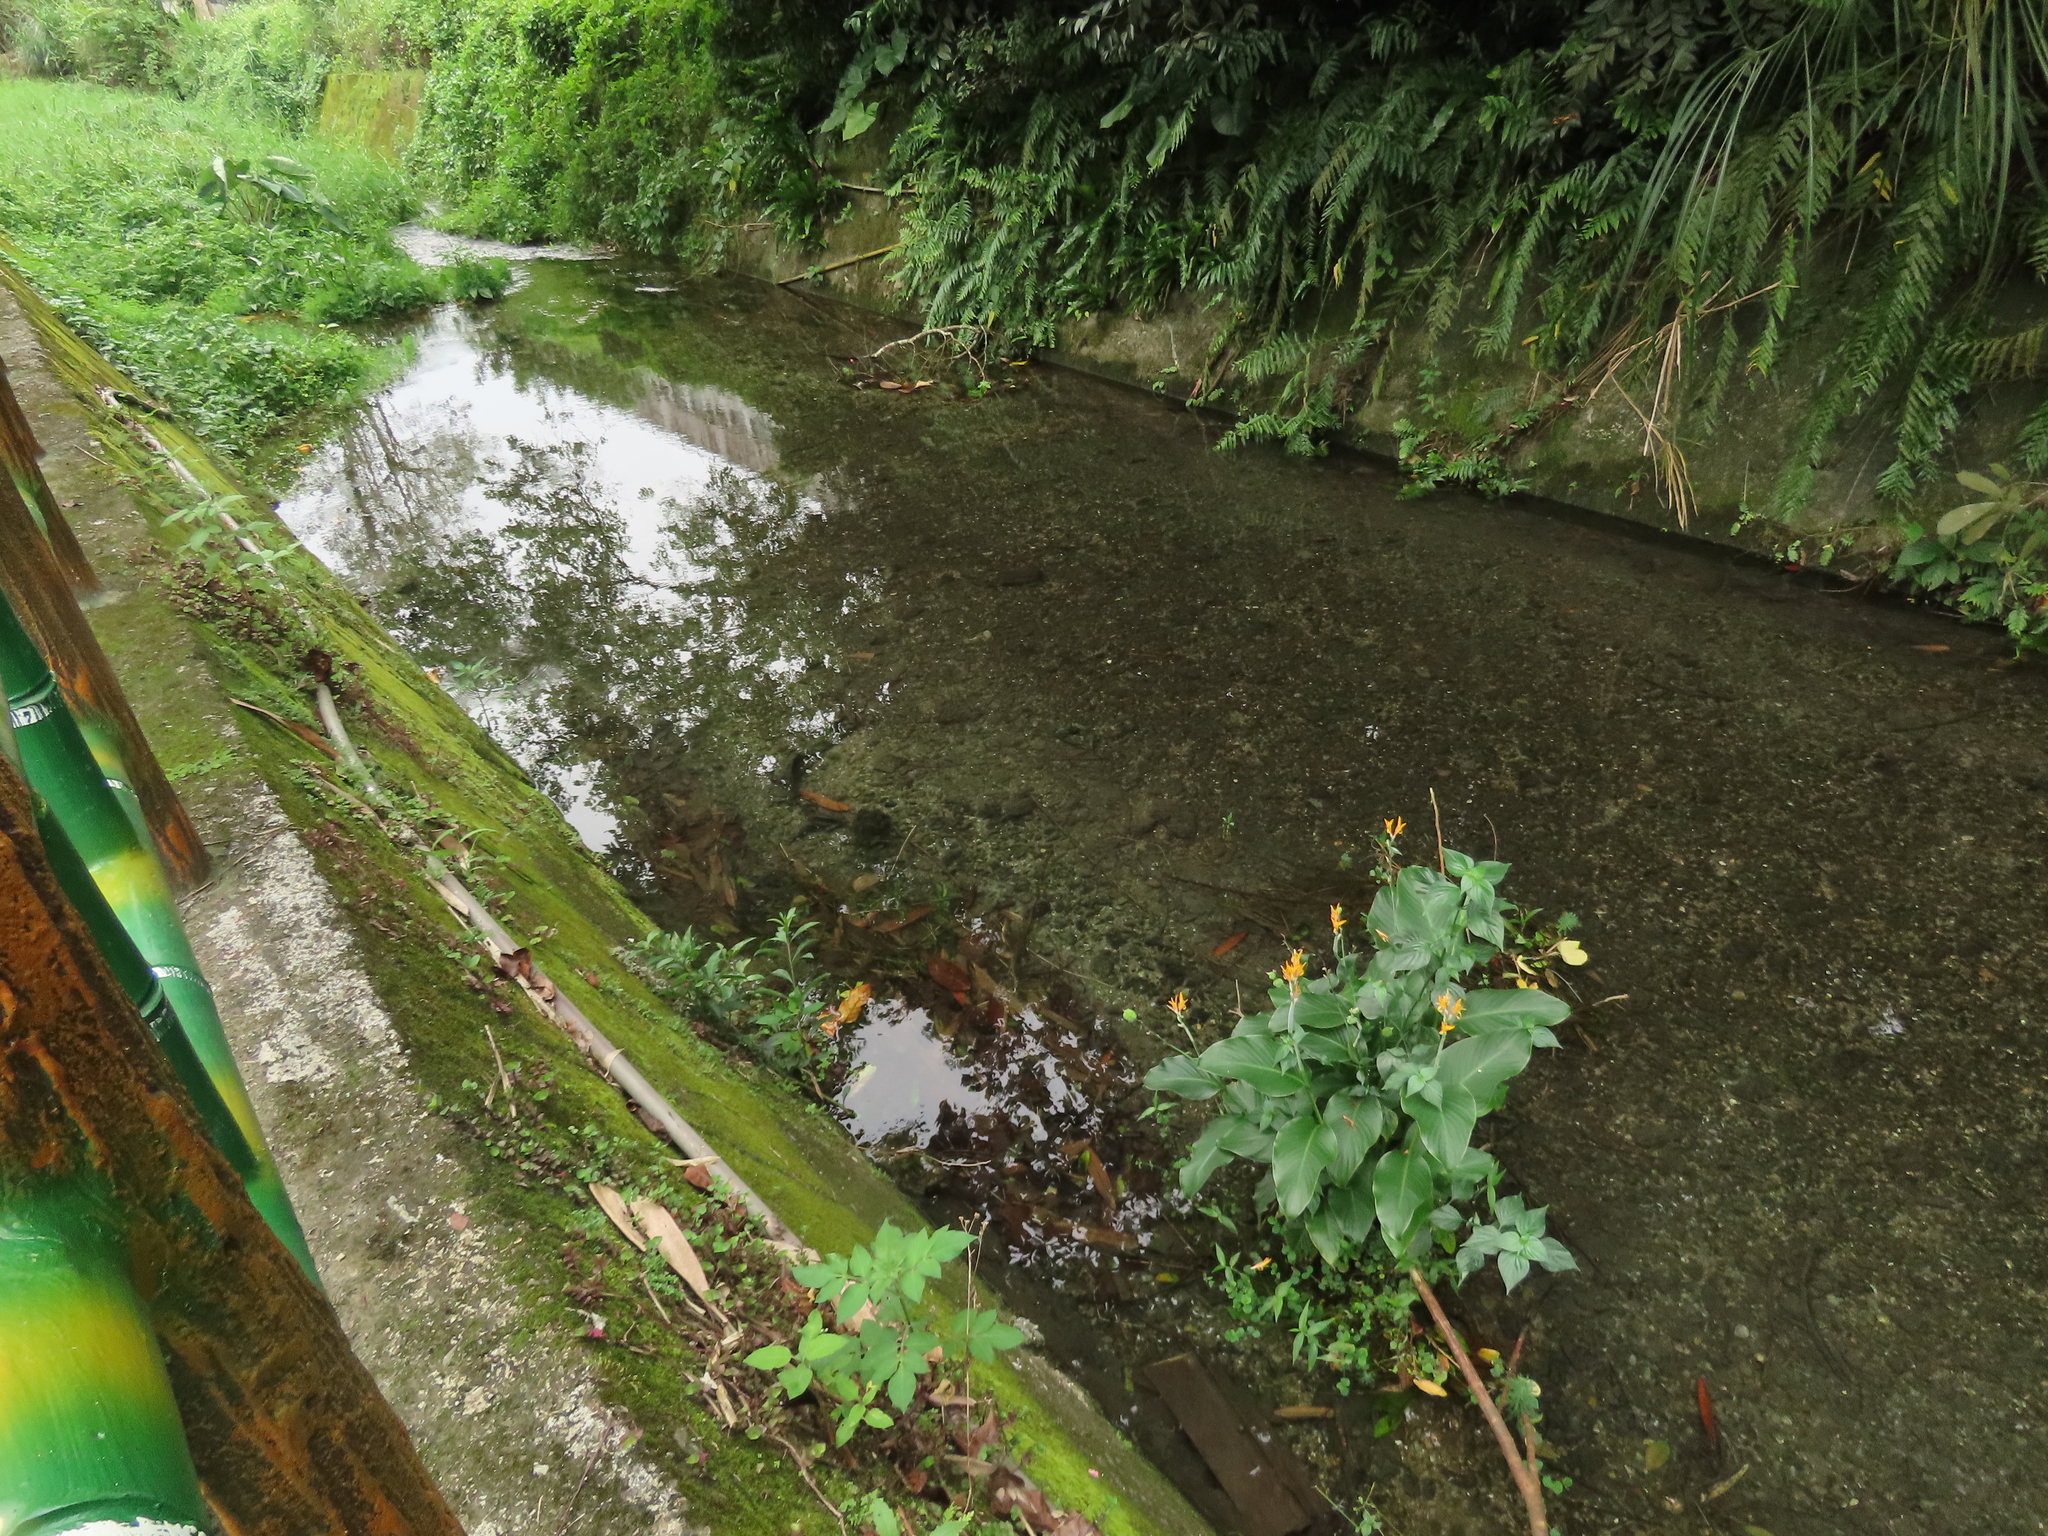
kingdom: Plantae
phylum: Tracheophyta
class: Liliopsida
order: Zingiberales
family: Cannaceae
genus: Canna
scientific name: Canna indica
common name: Indian shot
